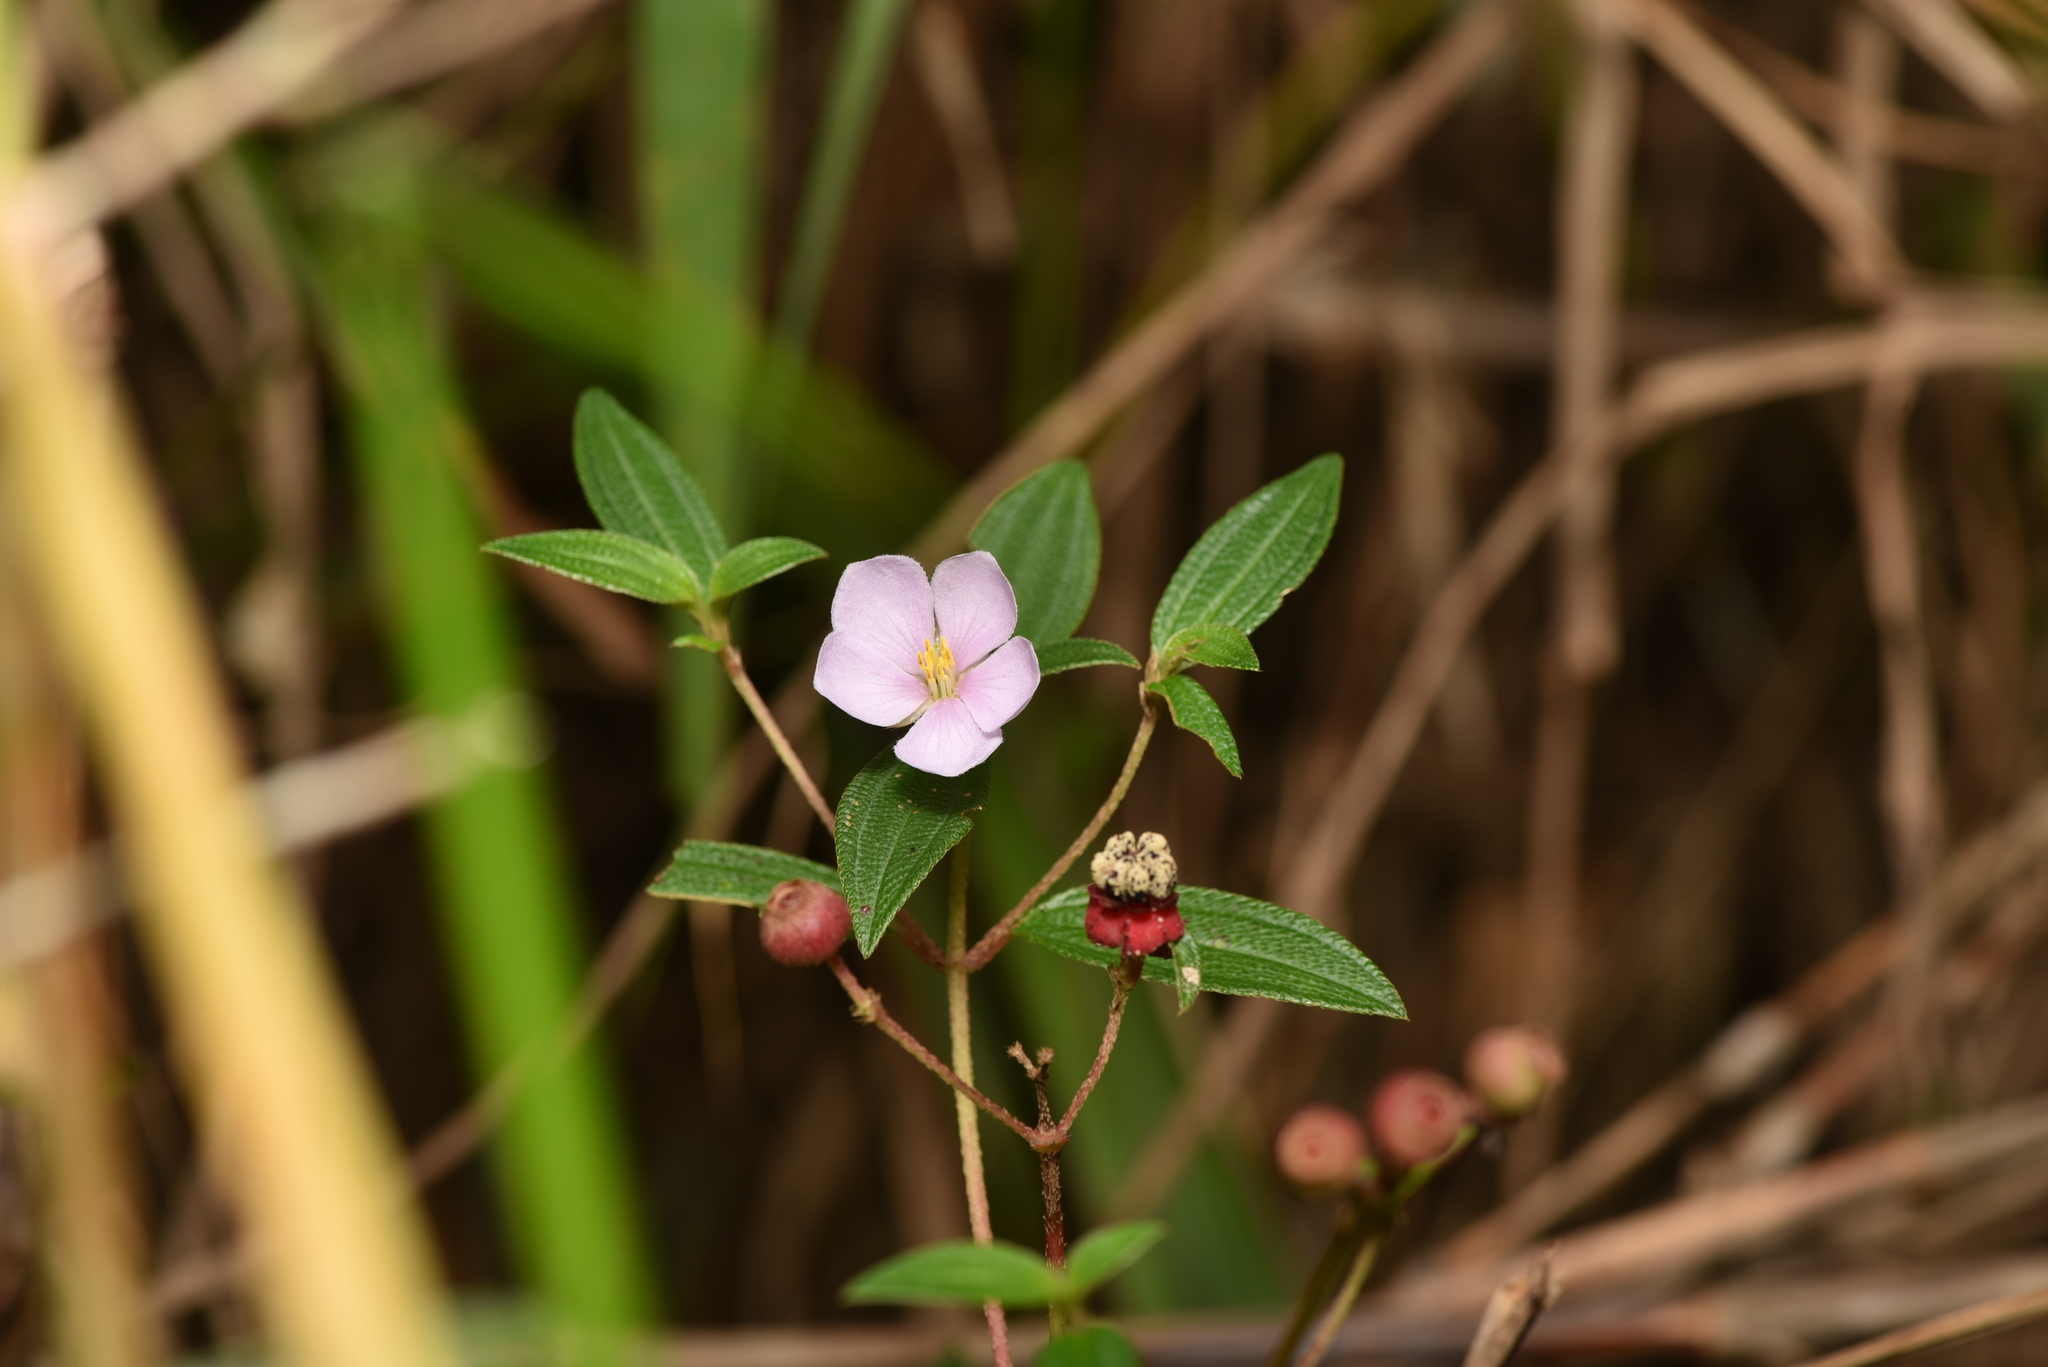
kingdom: Plantae
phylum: Tracheophyta
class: Magnoliopsida
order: Myrtales
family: Melastomataceae
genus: Melastoma
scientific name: Melastoma scaberrima
